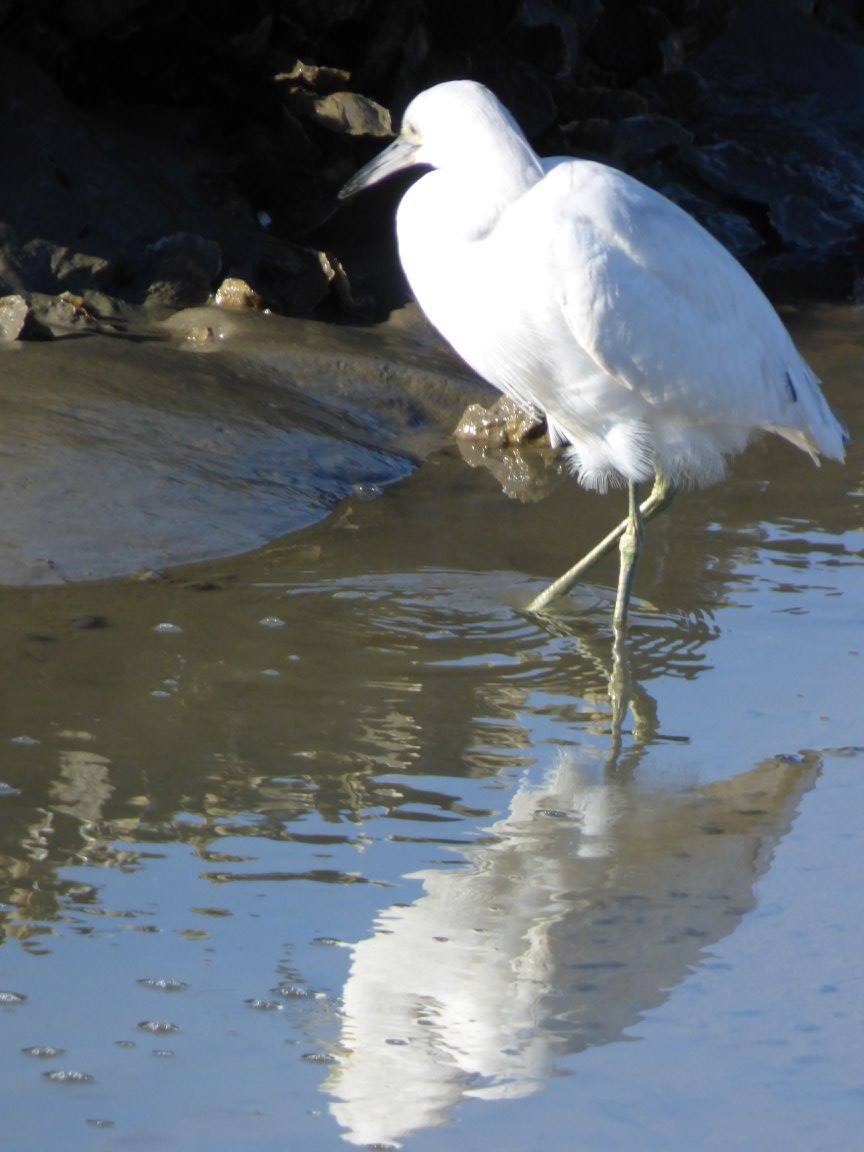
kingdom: Animalia
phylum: Chordata
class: Aves
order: Pelecaniformes
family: Ardeidae
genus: Egretta
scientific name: Egretta caerulea
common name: Little blue heron
